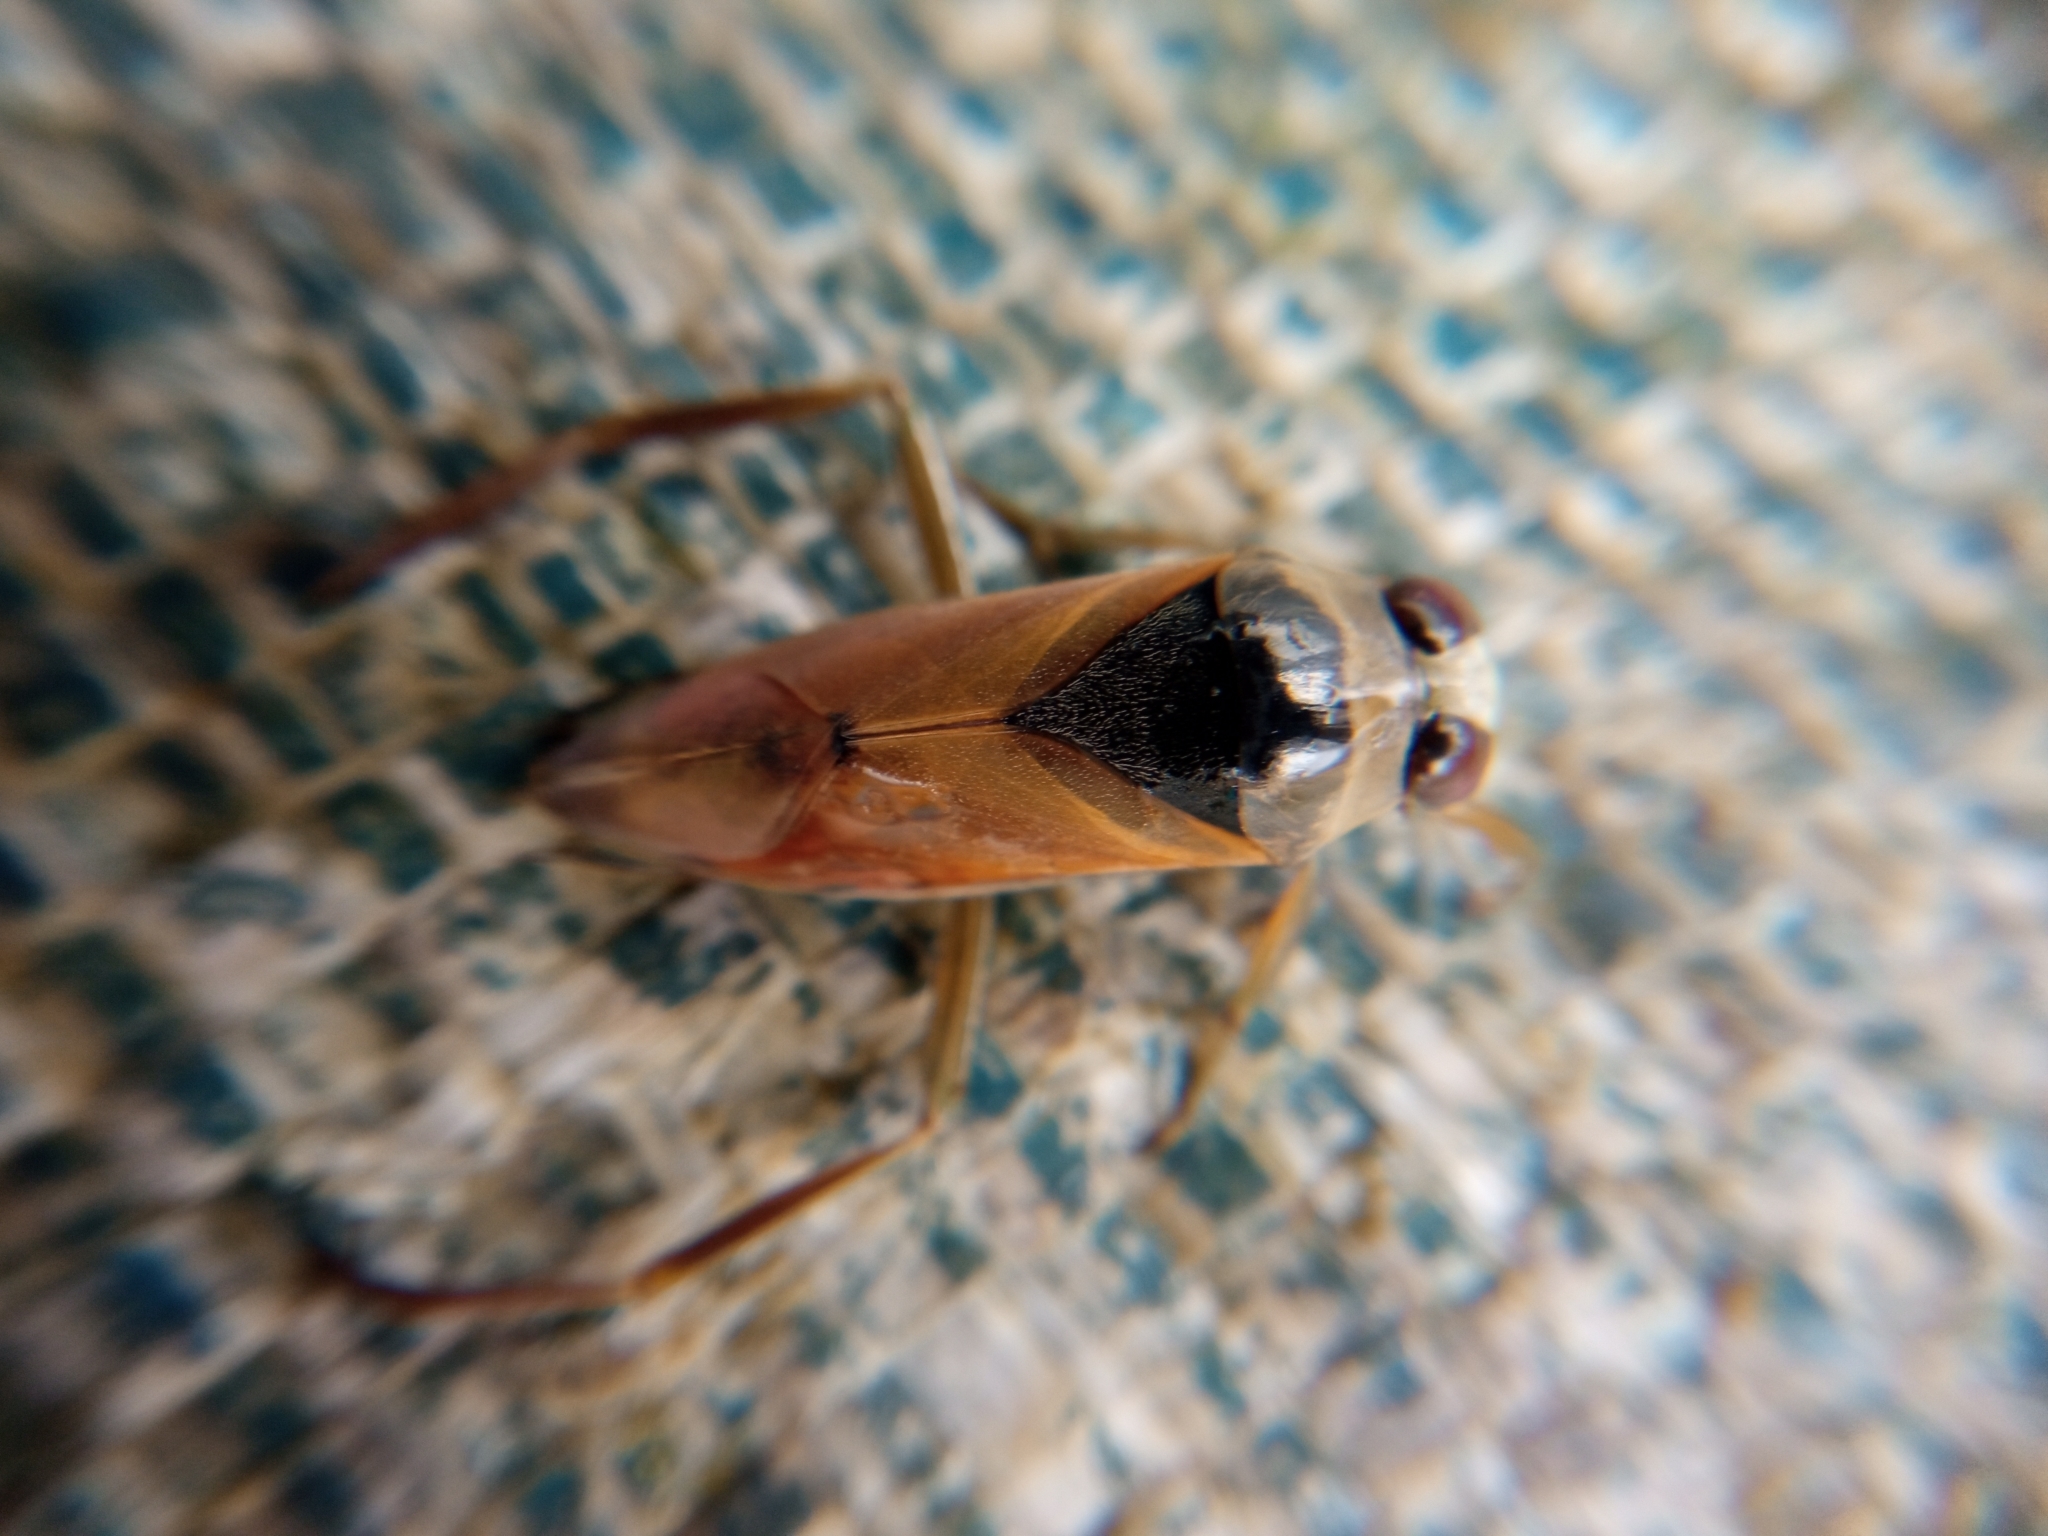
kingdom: Animalia
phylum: Arthropoda
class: Insecta
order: Hemiptera
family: Notonectidae
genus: Notonecta
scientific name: Notonecta glauca
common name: Common water-boatman
